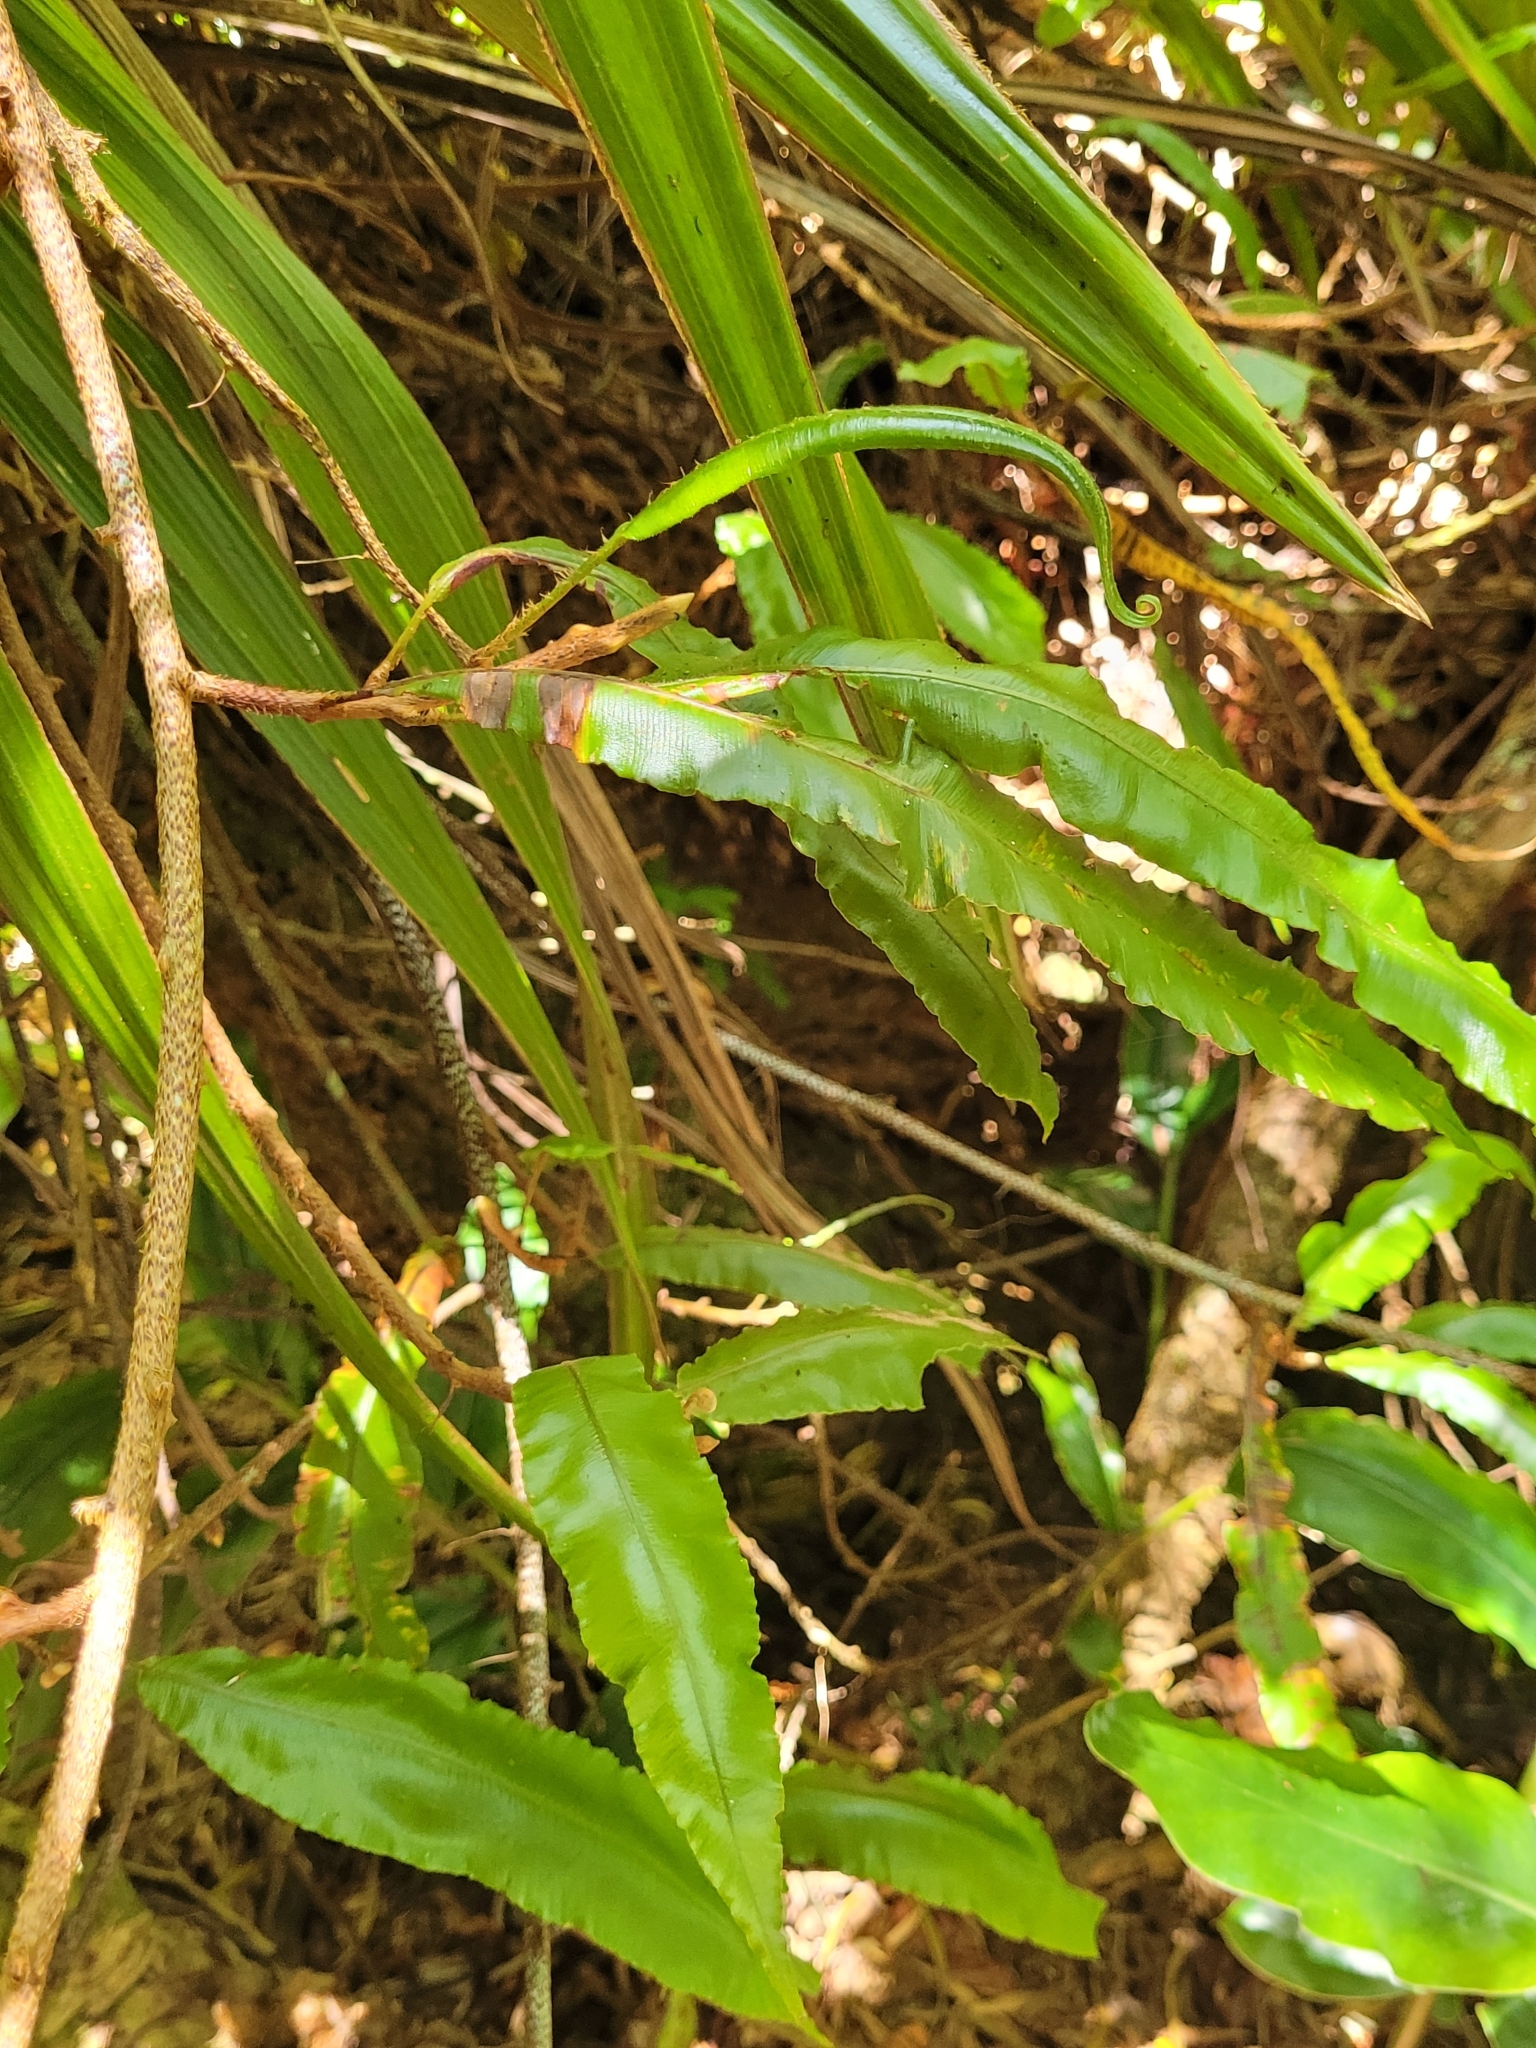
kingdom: Plantae
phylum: Tracheophyta
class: Polypodiopsida
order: Polypodiales
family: Oleandraceae
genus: Oleandra
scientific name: Oleandra distenta
